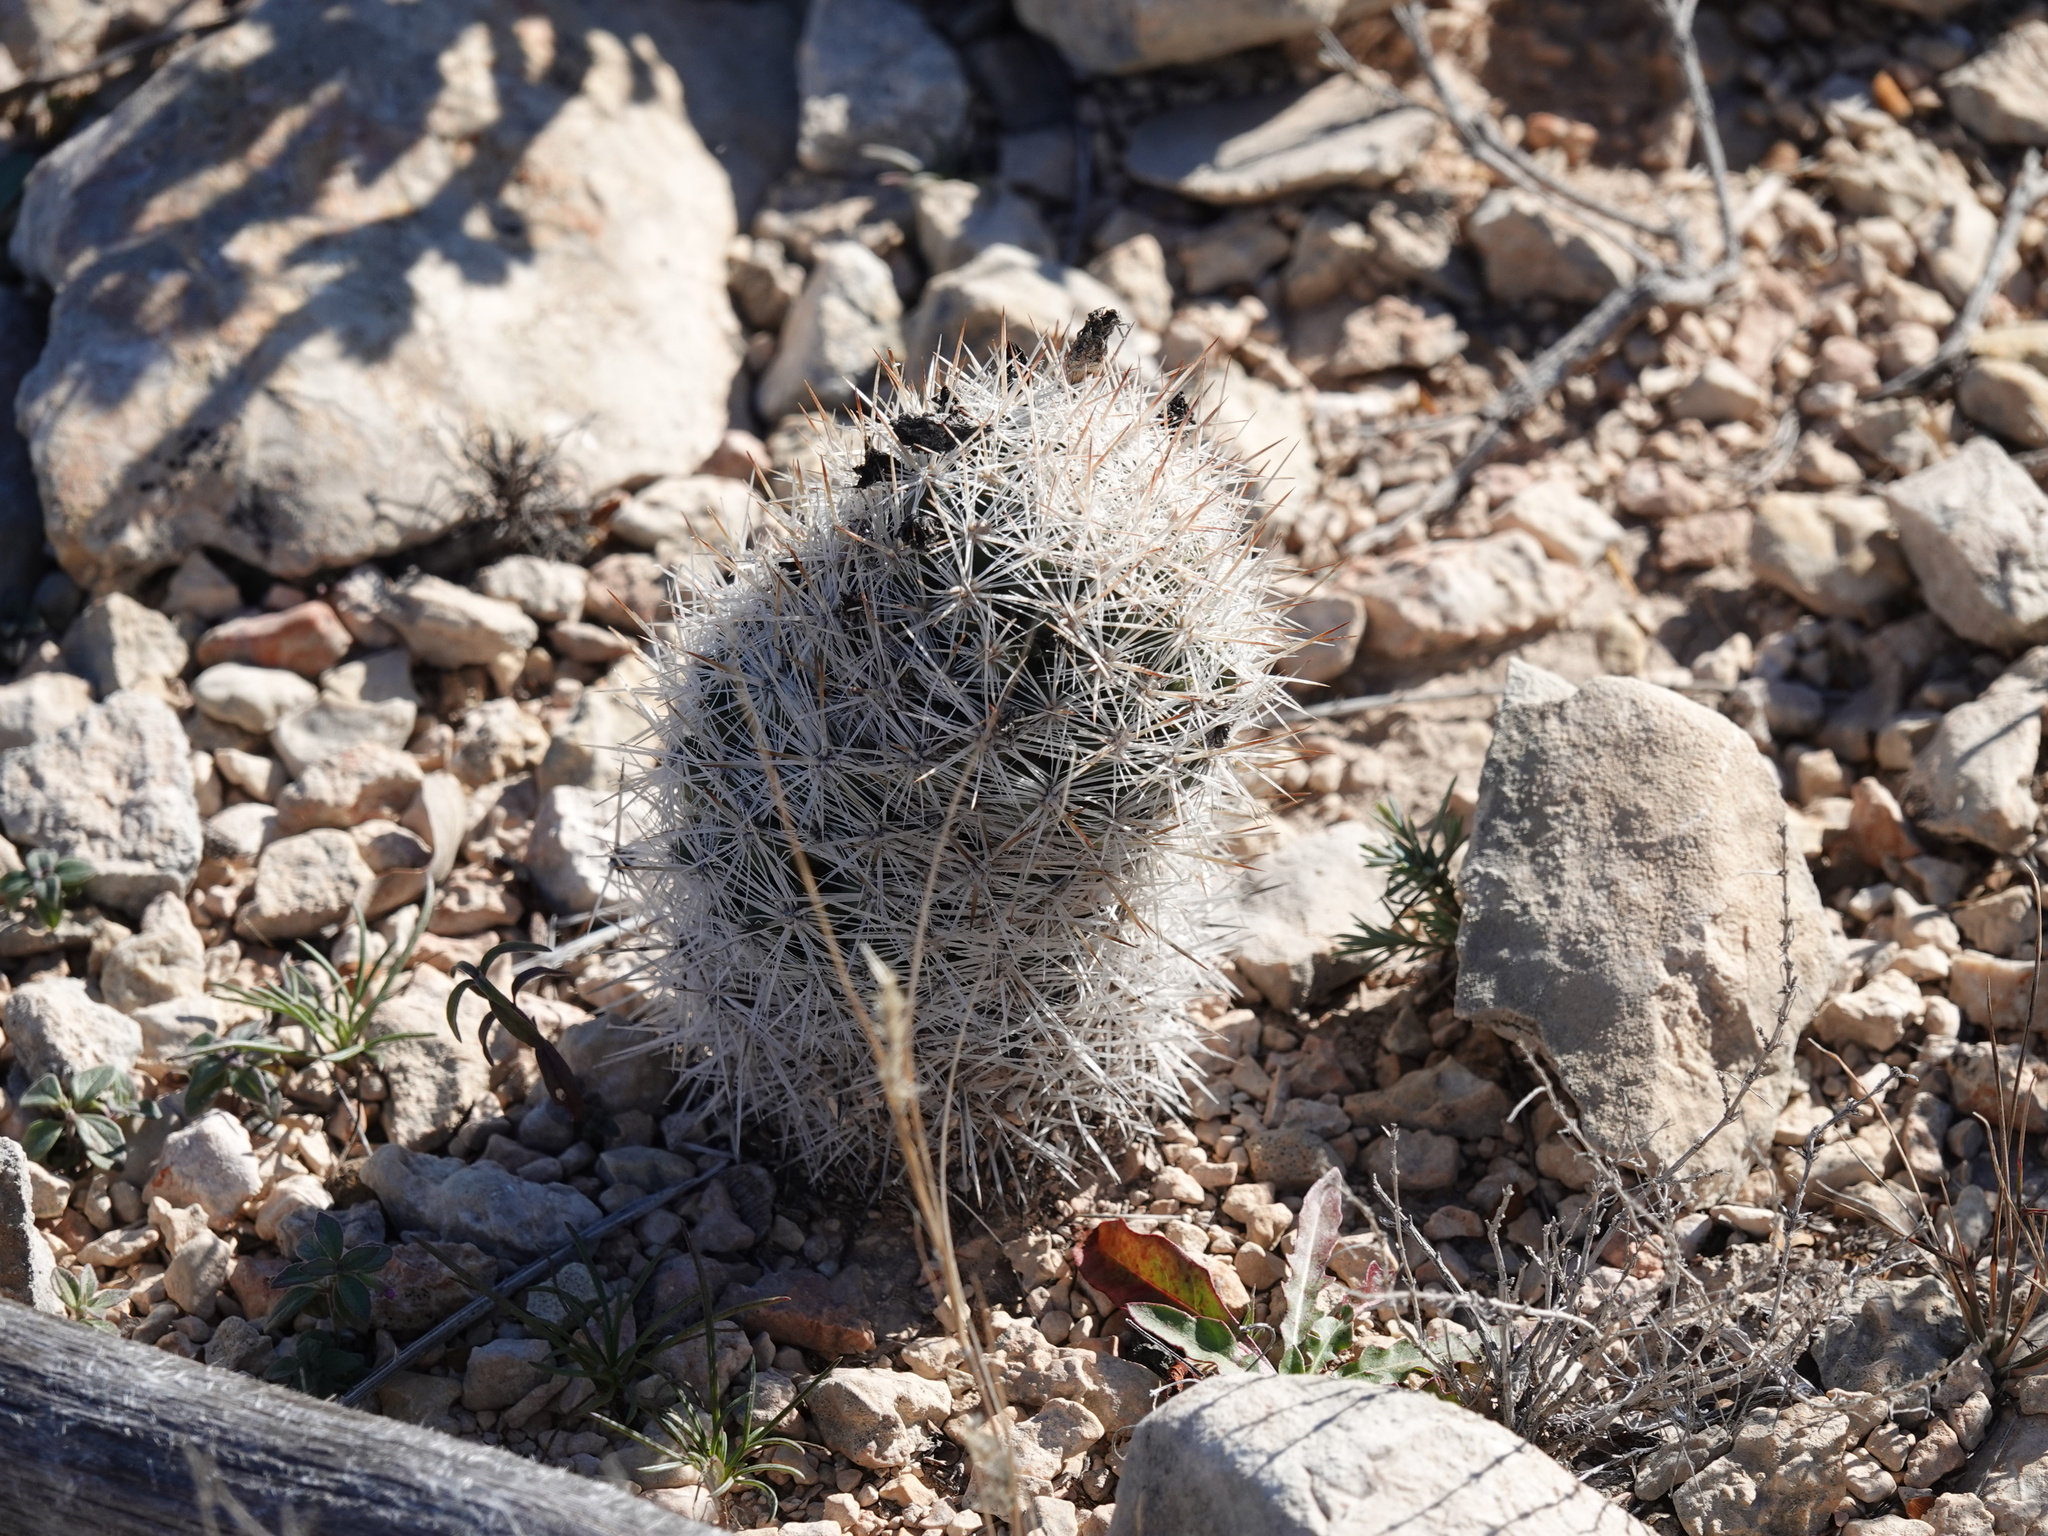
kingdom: Plantae
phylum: Tracheophyta
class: Magnoliopsida
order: Caryophyllales
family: Cactaceae
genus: Pelecyphora
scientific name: Pelecyphora tuberculosa
